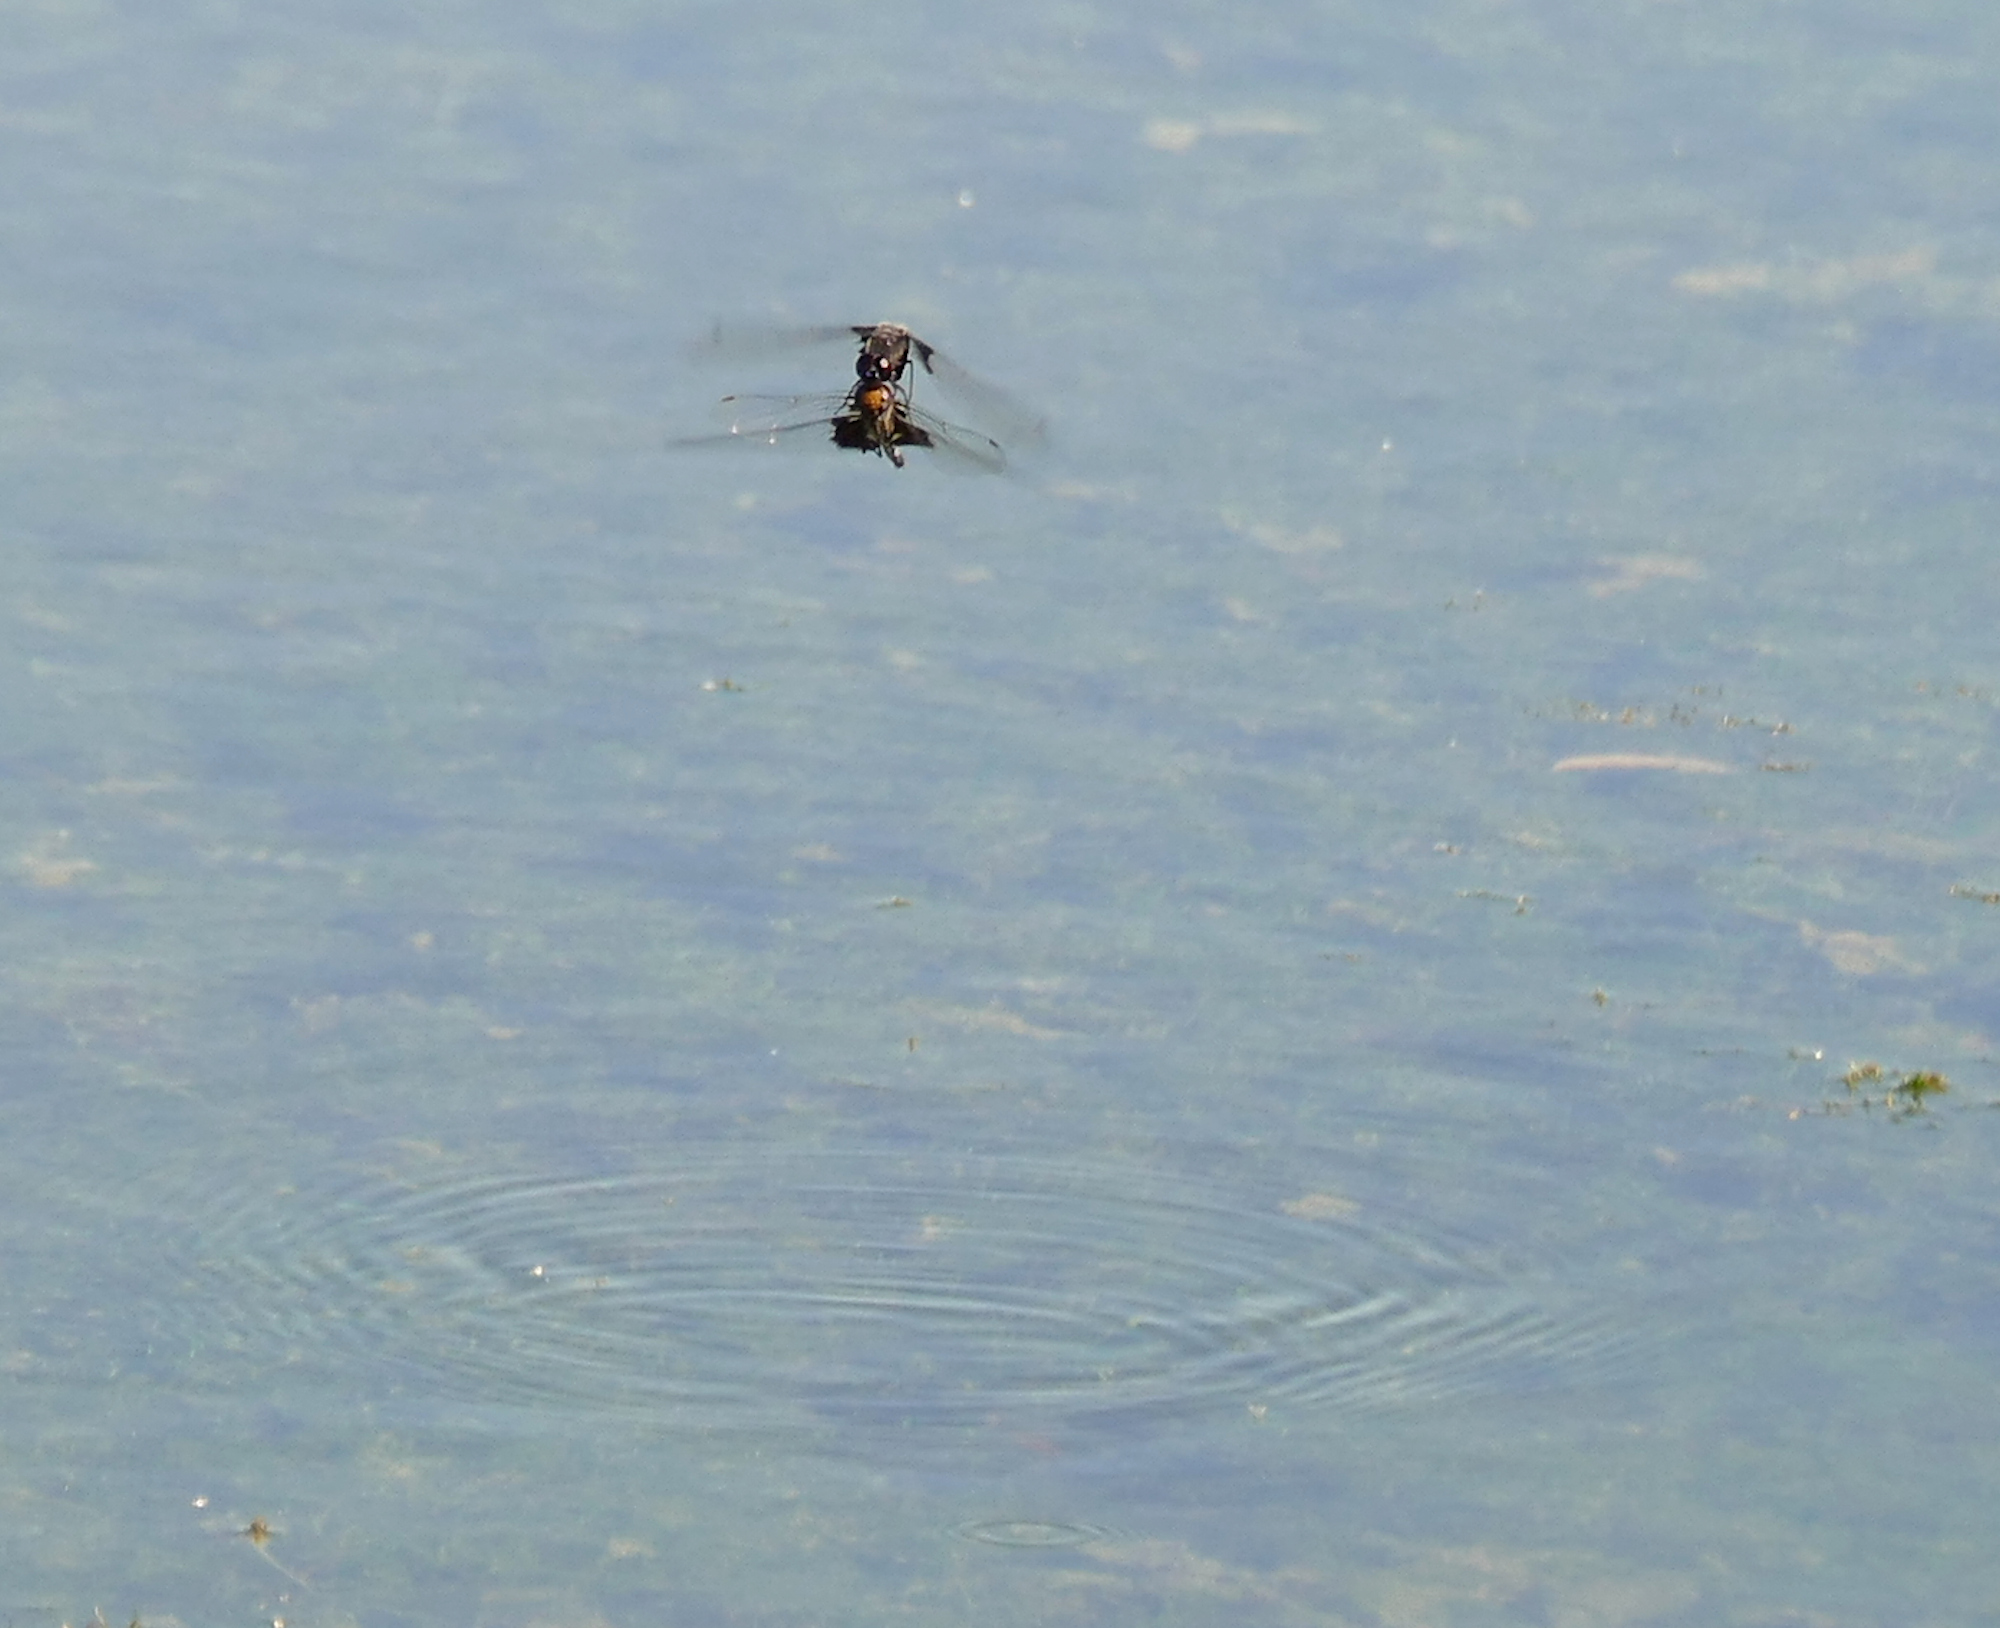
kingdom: Animalia
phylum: Arthropoda
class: Insecta
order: Odonata
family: Libellulidae
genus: Tramea
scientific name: Tramea lacerata
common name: Black saddlebags
